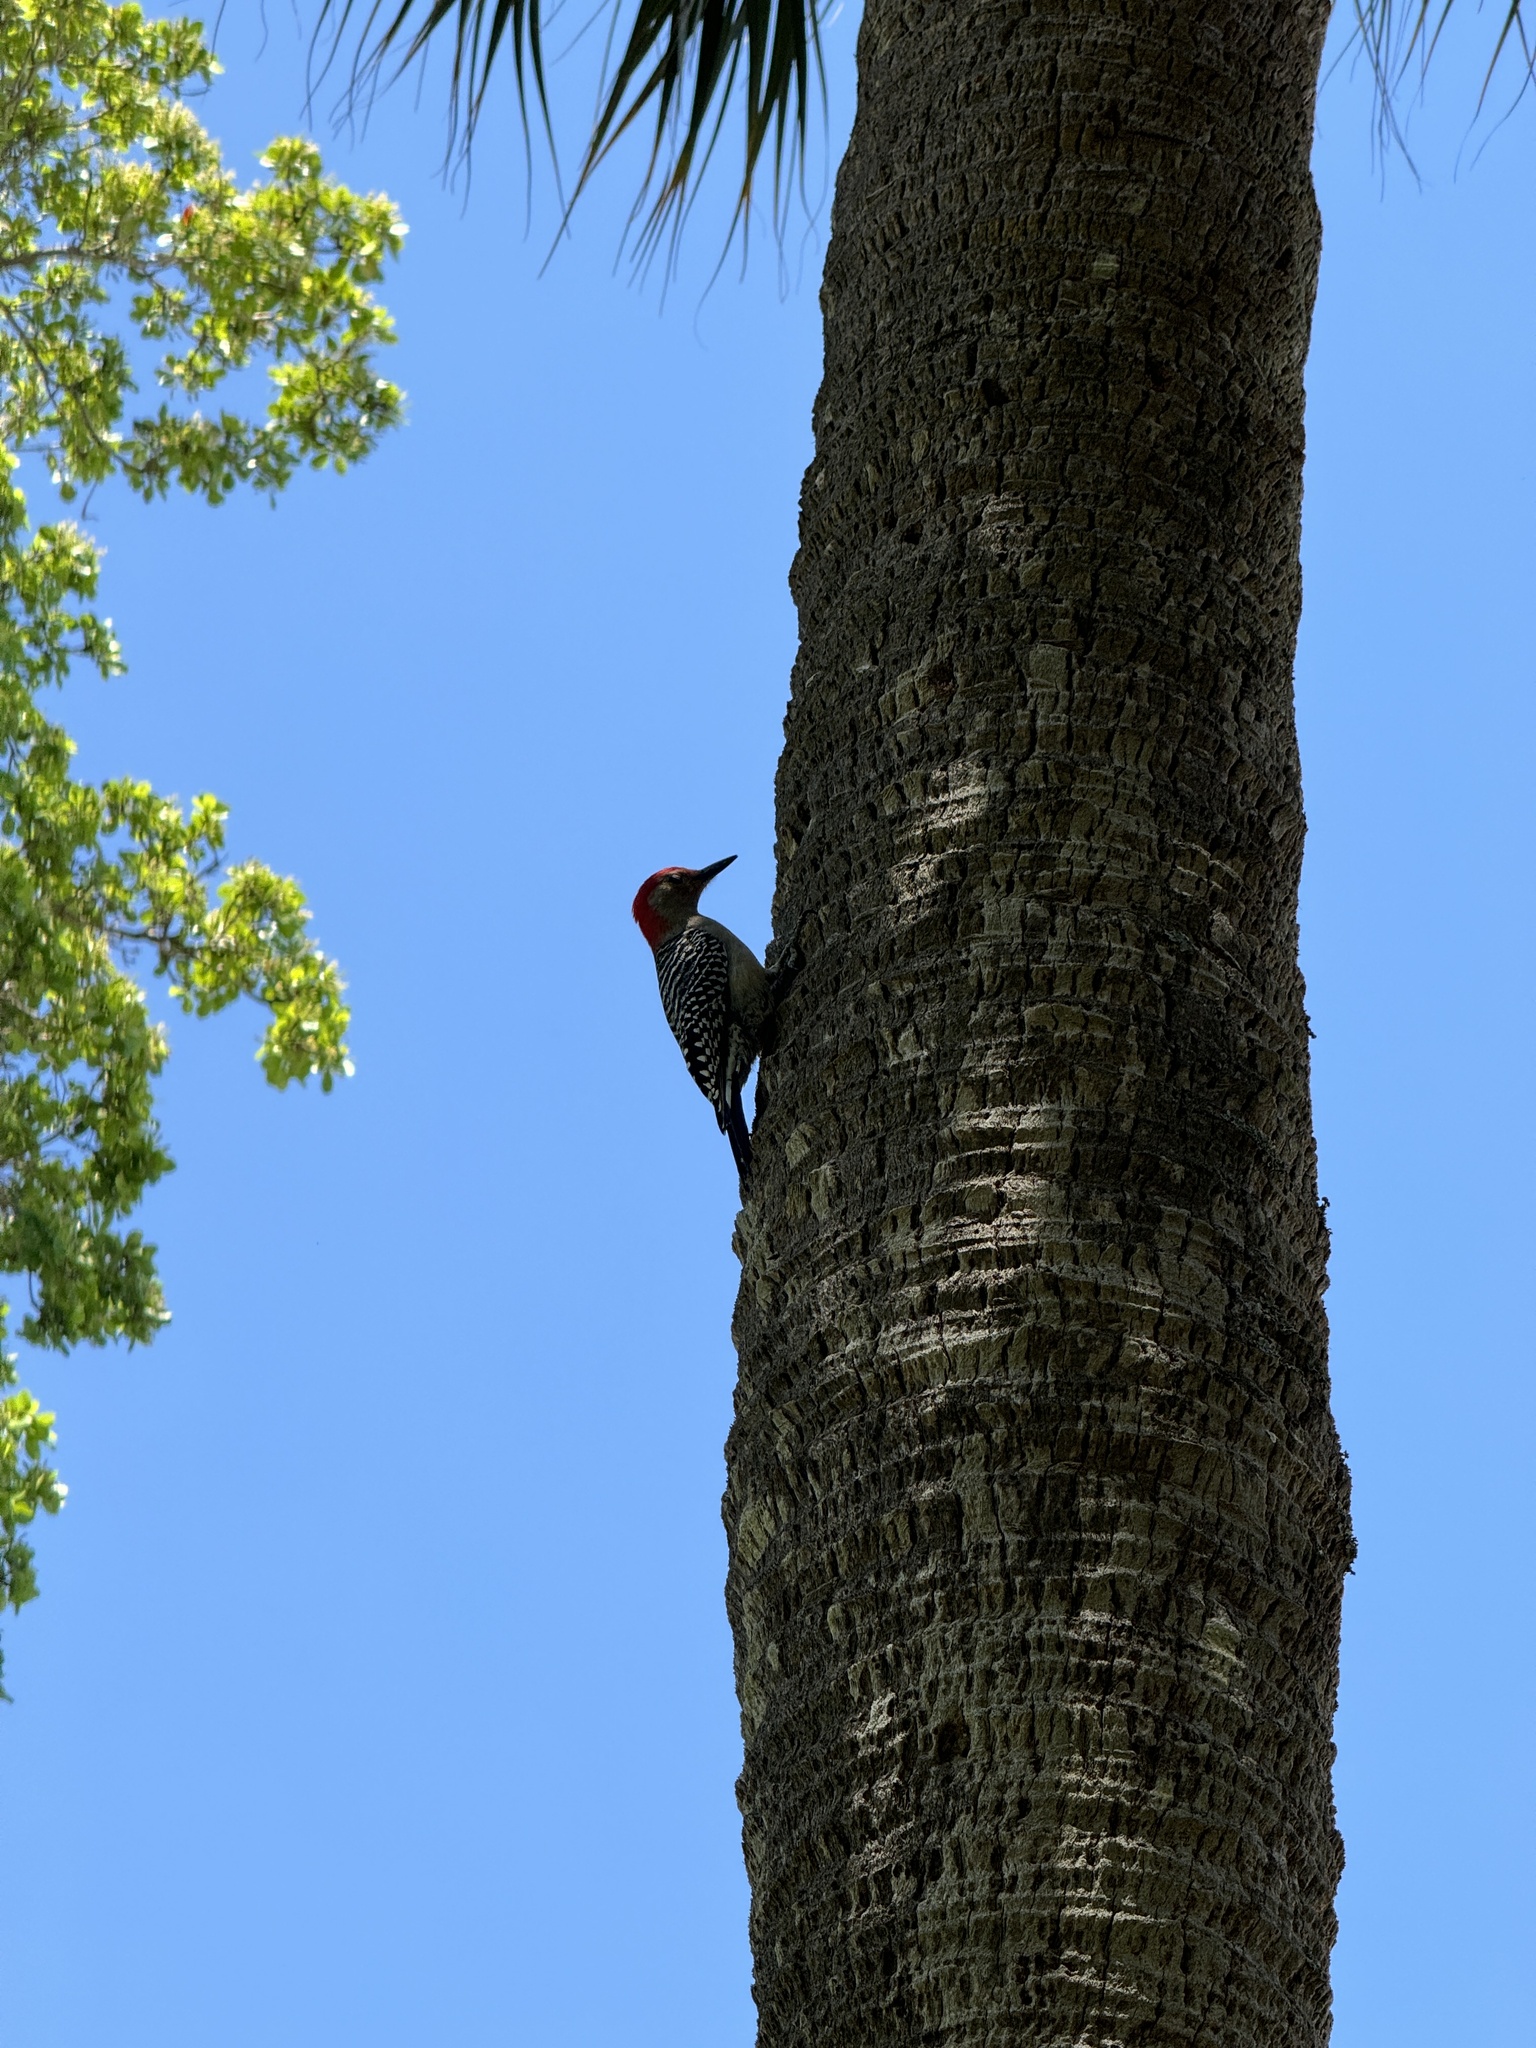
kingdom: Animalia
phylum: Chordata
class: Aves
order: Piciformes
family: Picidae
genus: Melanerpes
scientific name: Melanerpes carolinus
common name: Red-bellied woodpecker
